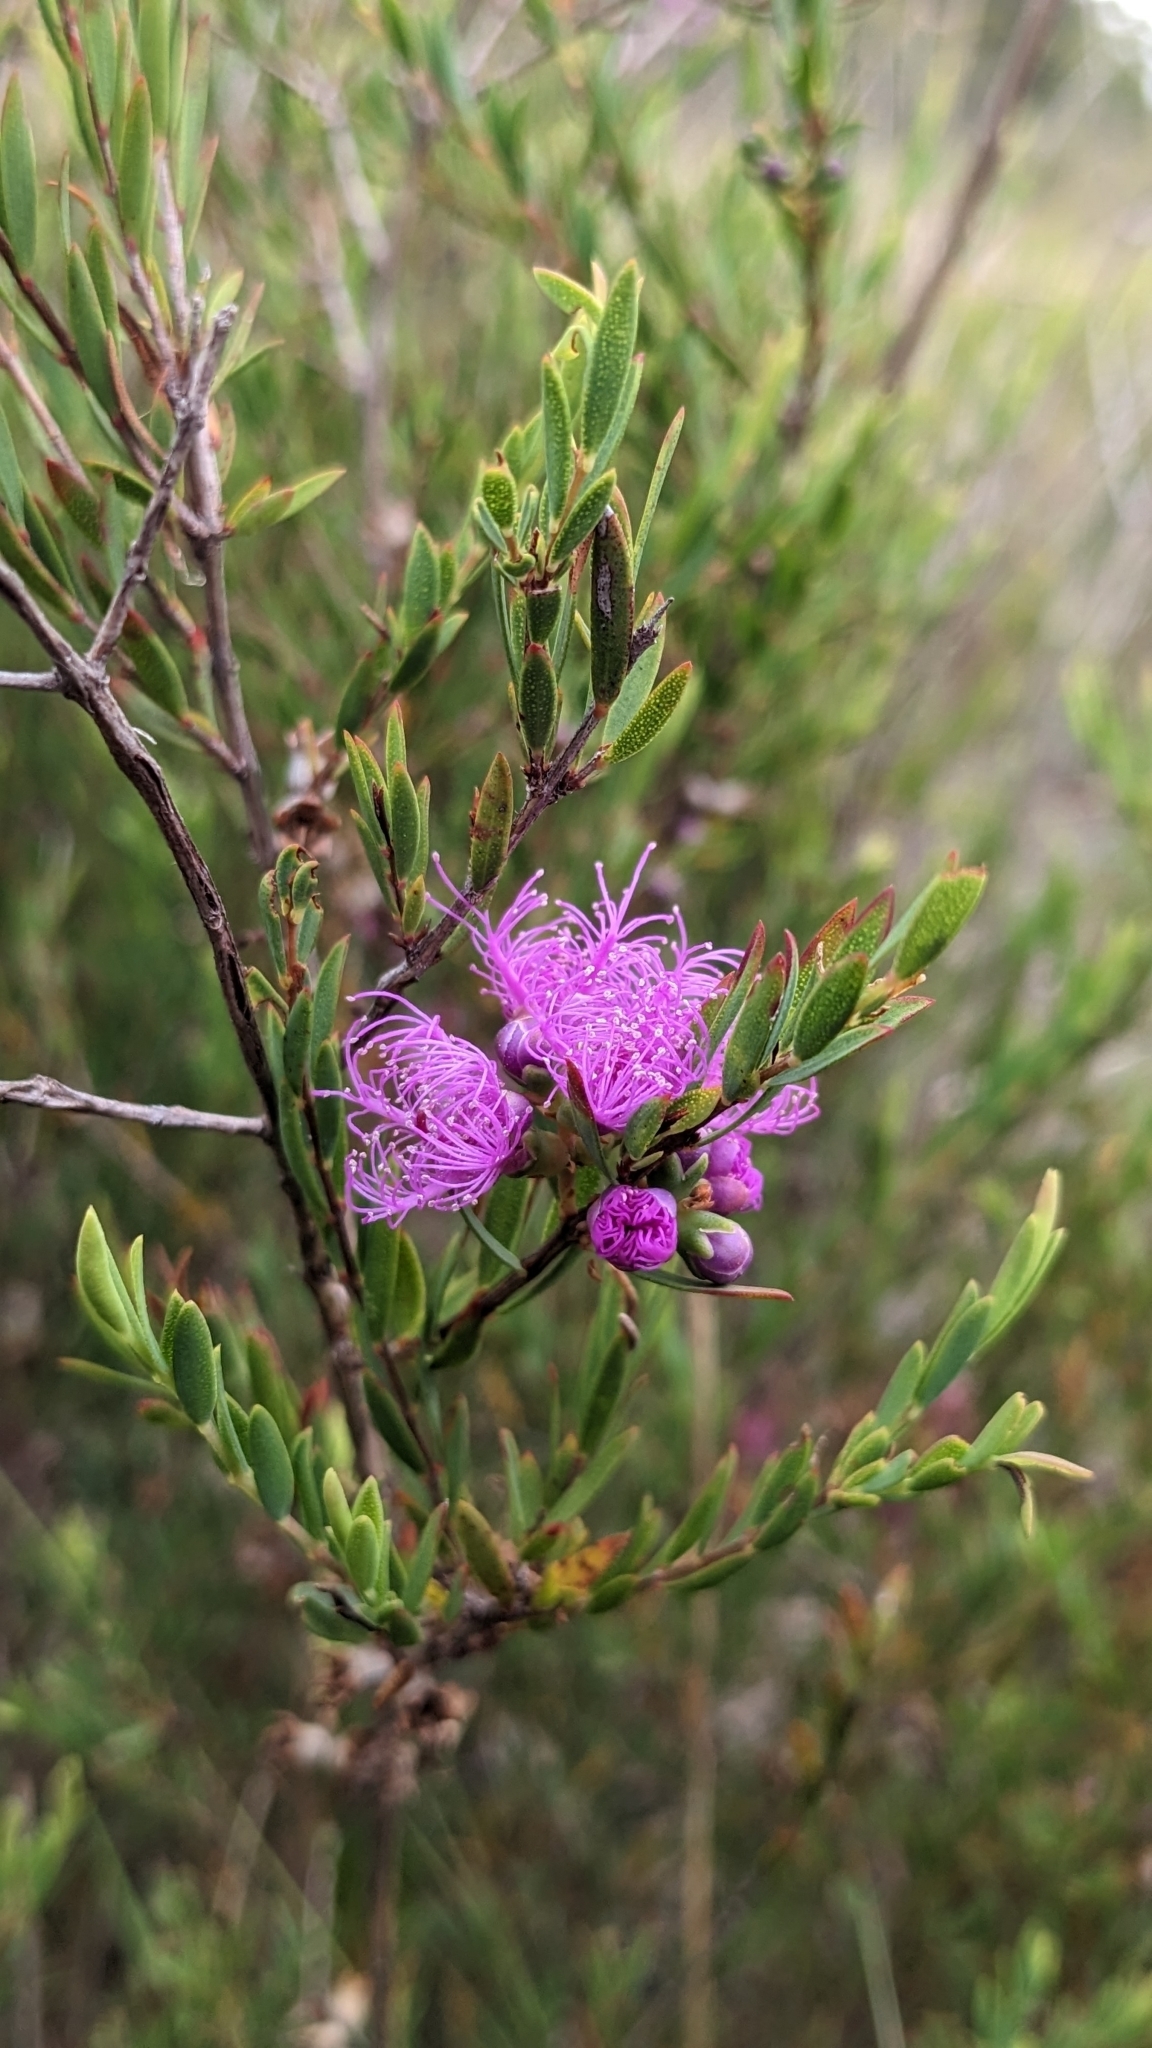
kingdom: Plantae
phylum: Tracheophyta
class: Magnoliopsida
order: Myrtales
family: Myrtaceae
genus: Melaleuca
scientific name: Melaleuca thymifolia
